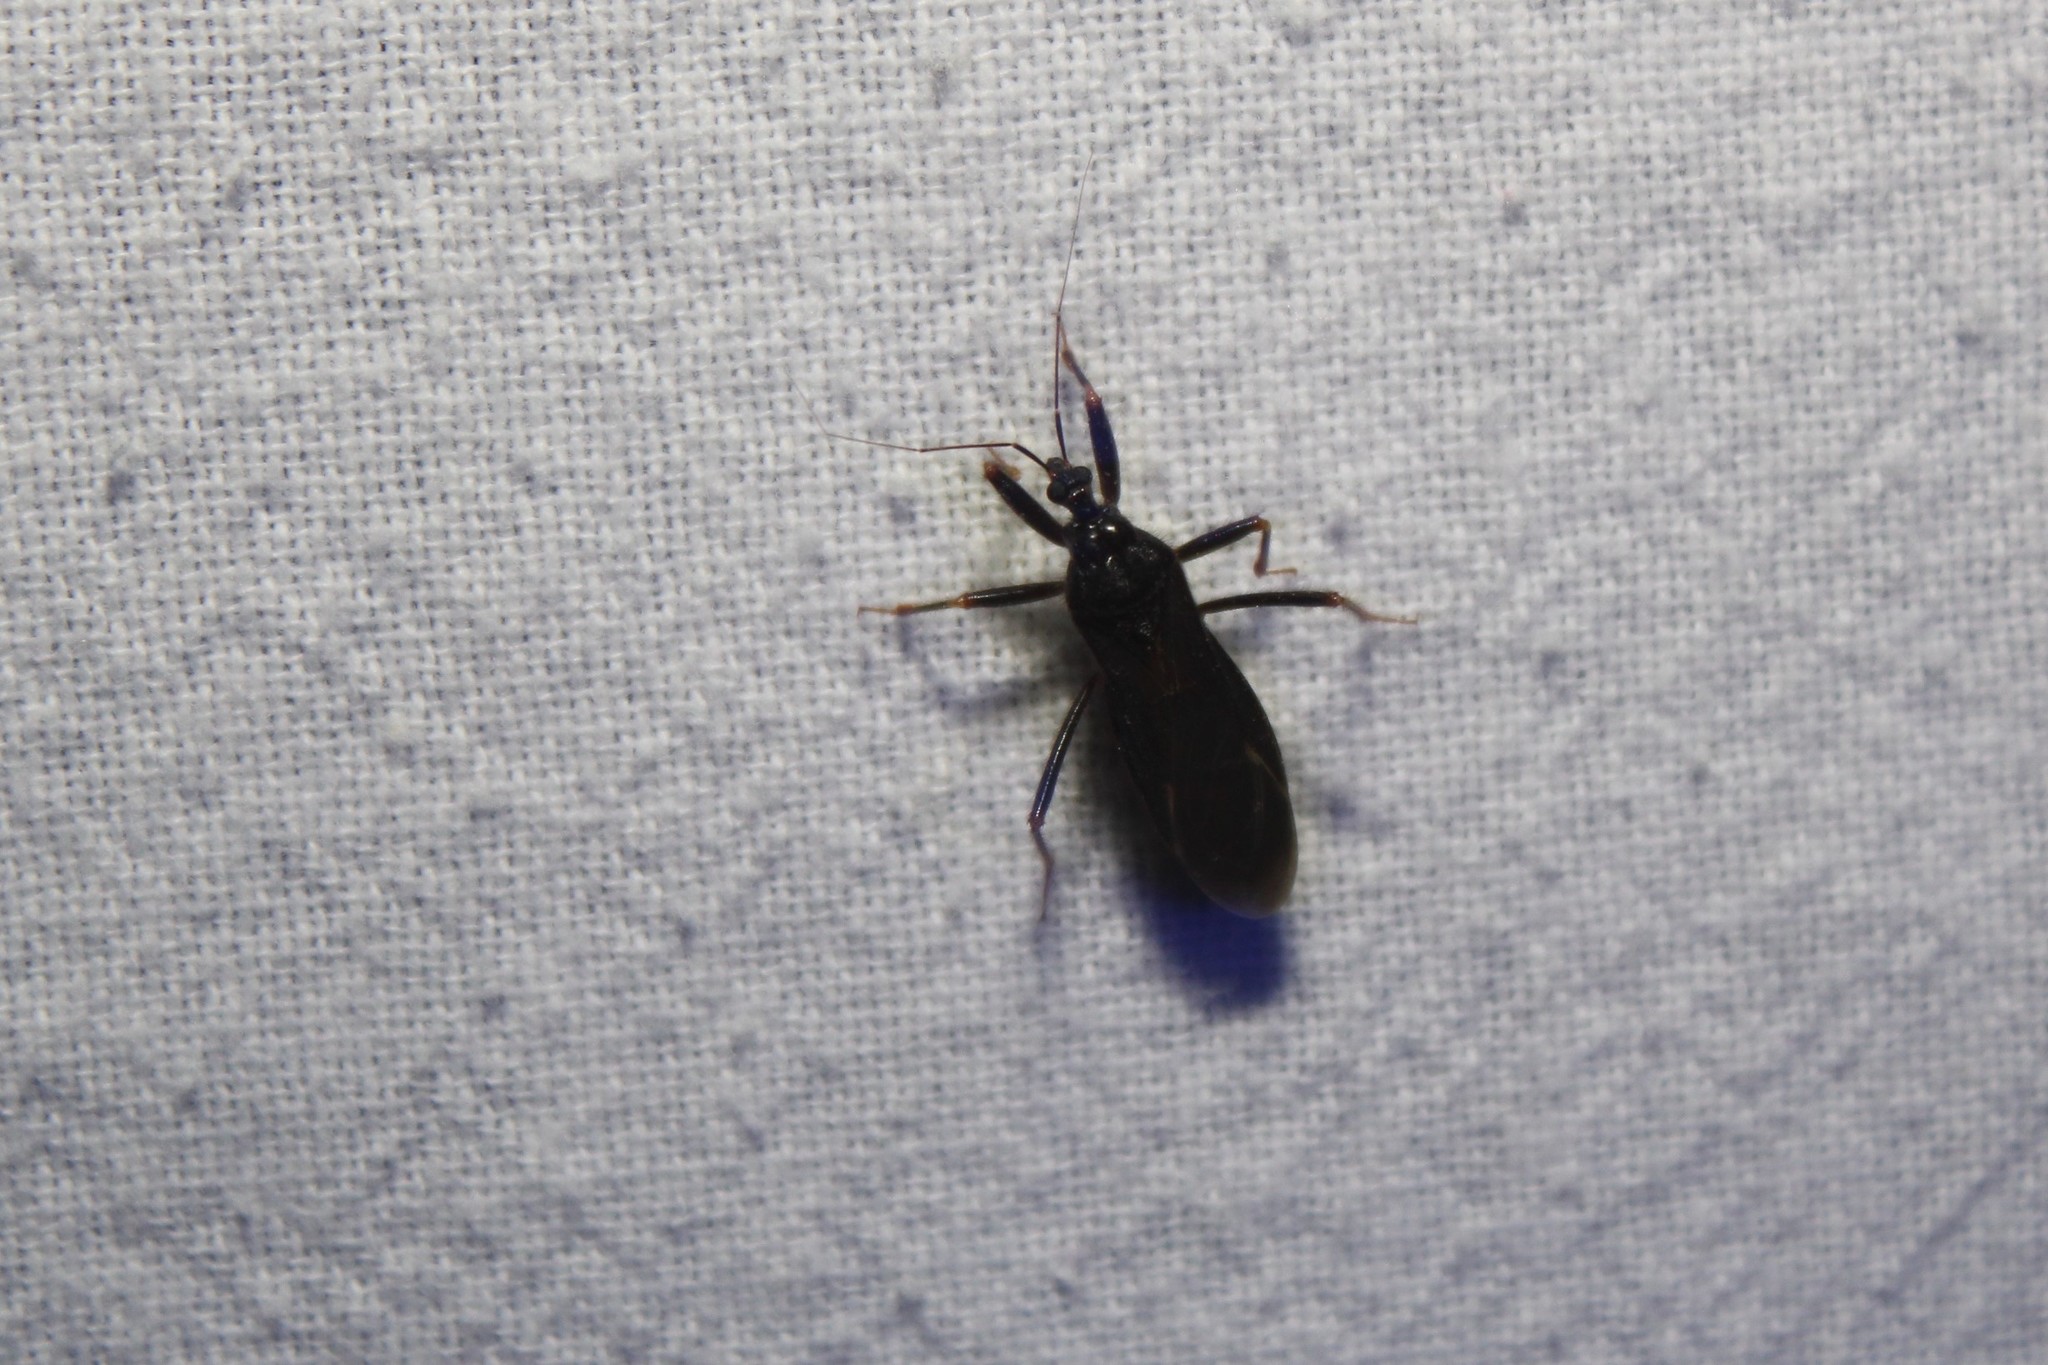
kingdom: Animalia
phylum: Arthropoda
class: Insecta
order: Hemiptera
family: Reduviidae
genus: Reduvius
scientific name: Reduvius personatus
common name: Masked hunter
